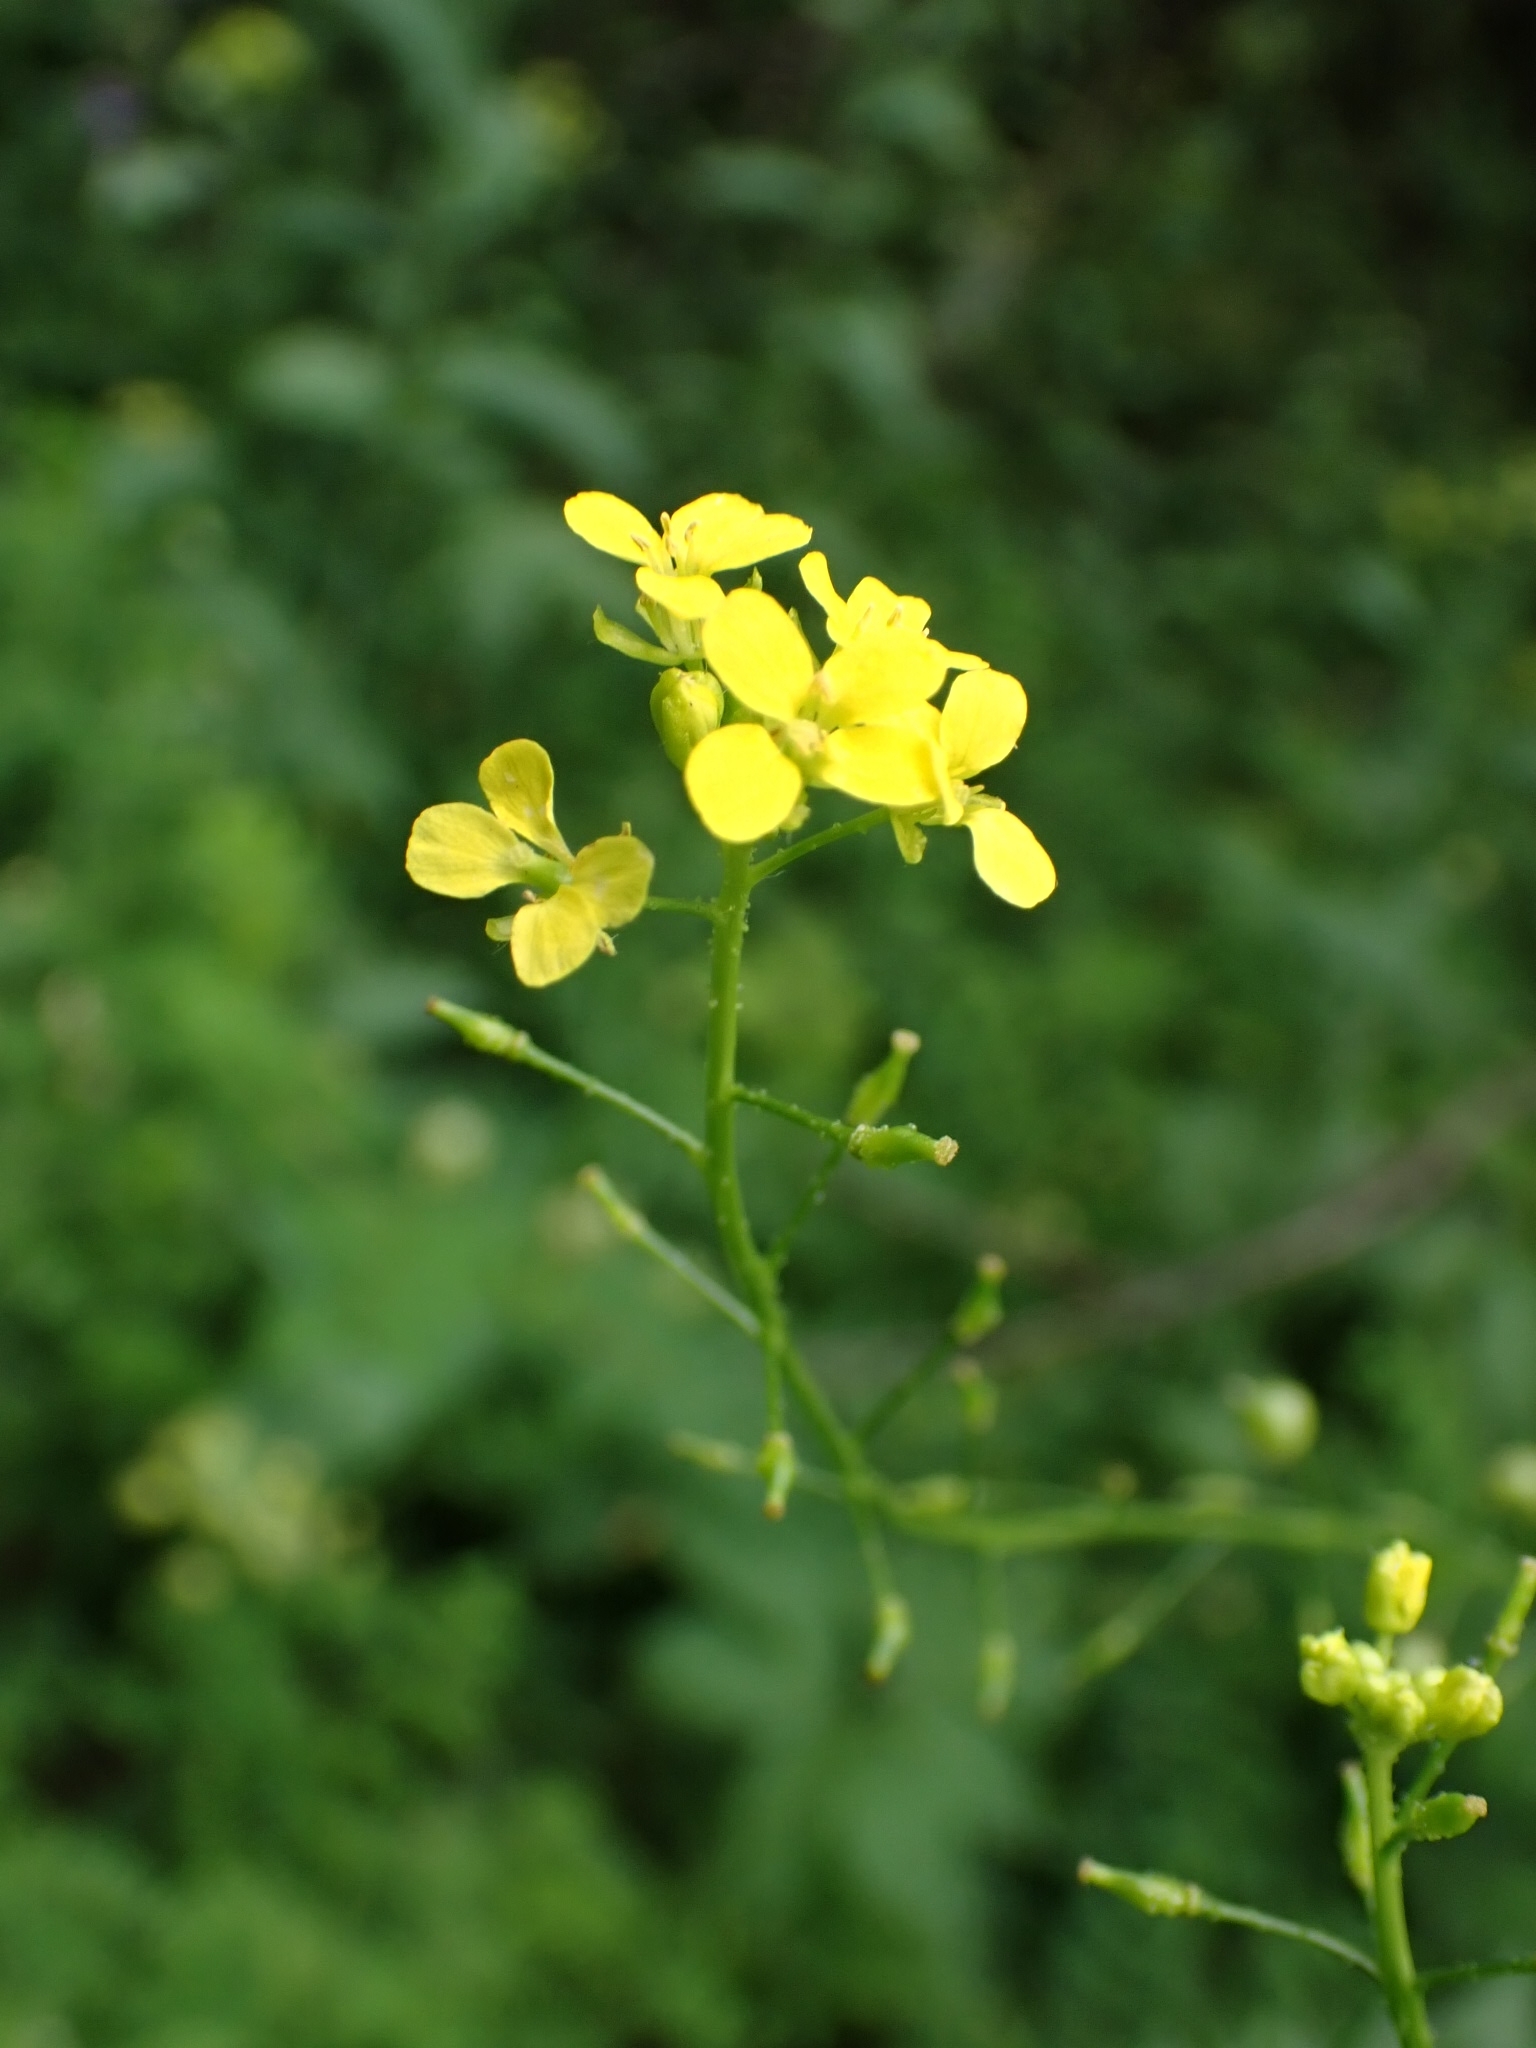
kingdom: Plantae
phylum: Tracheophyta
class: Magnoliopsida
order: Brassicales
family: Brassicaceae
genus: Bunias
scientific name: Bunias orientalis
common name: Warty-cabbage
